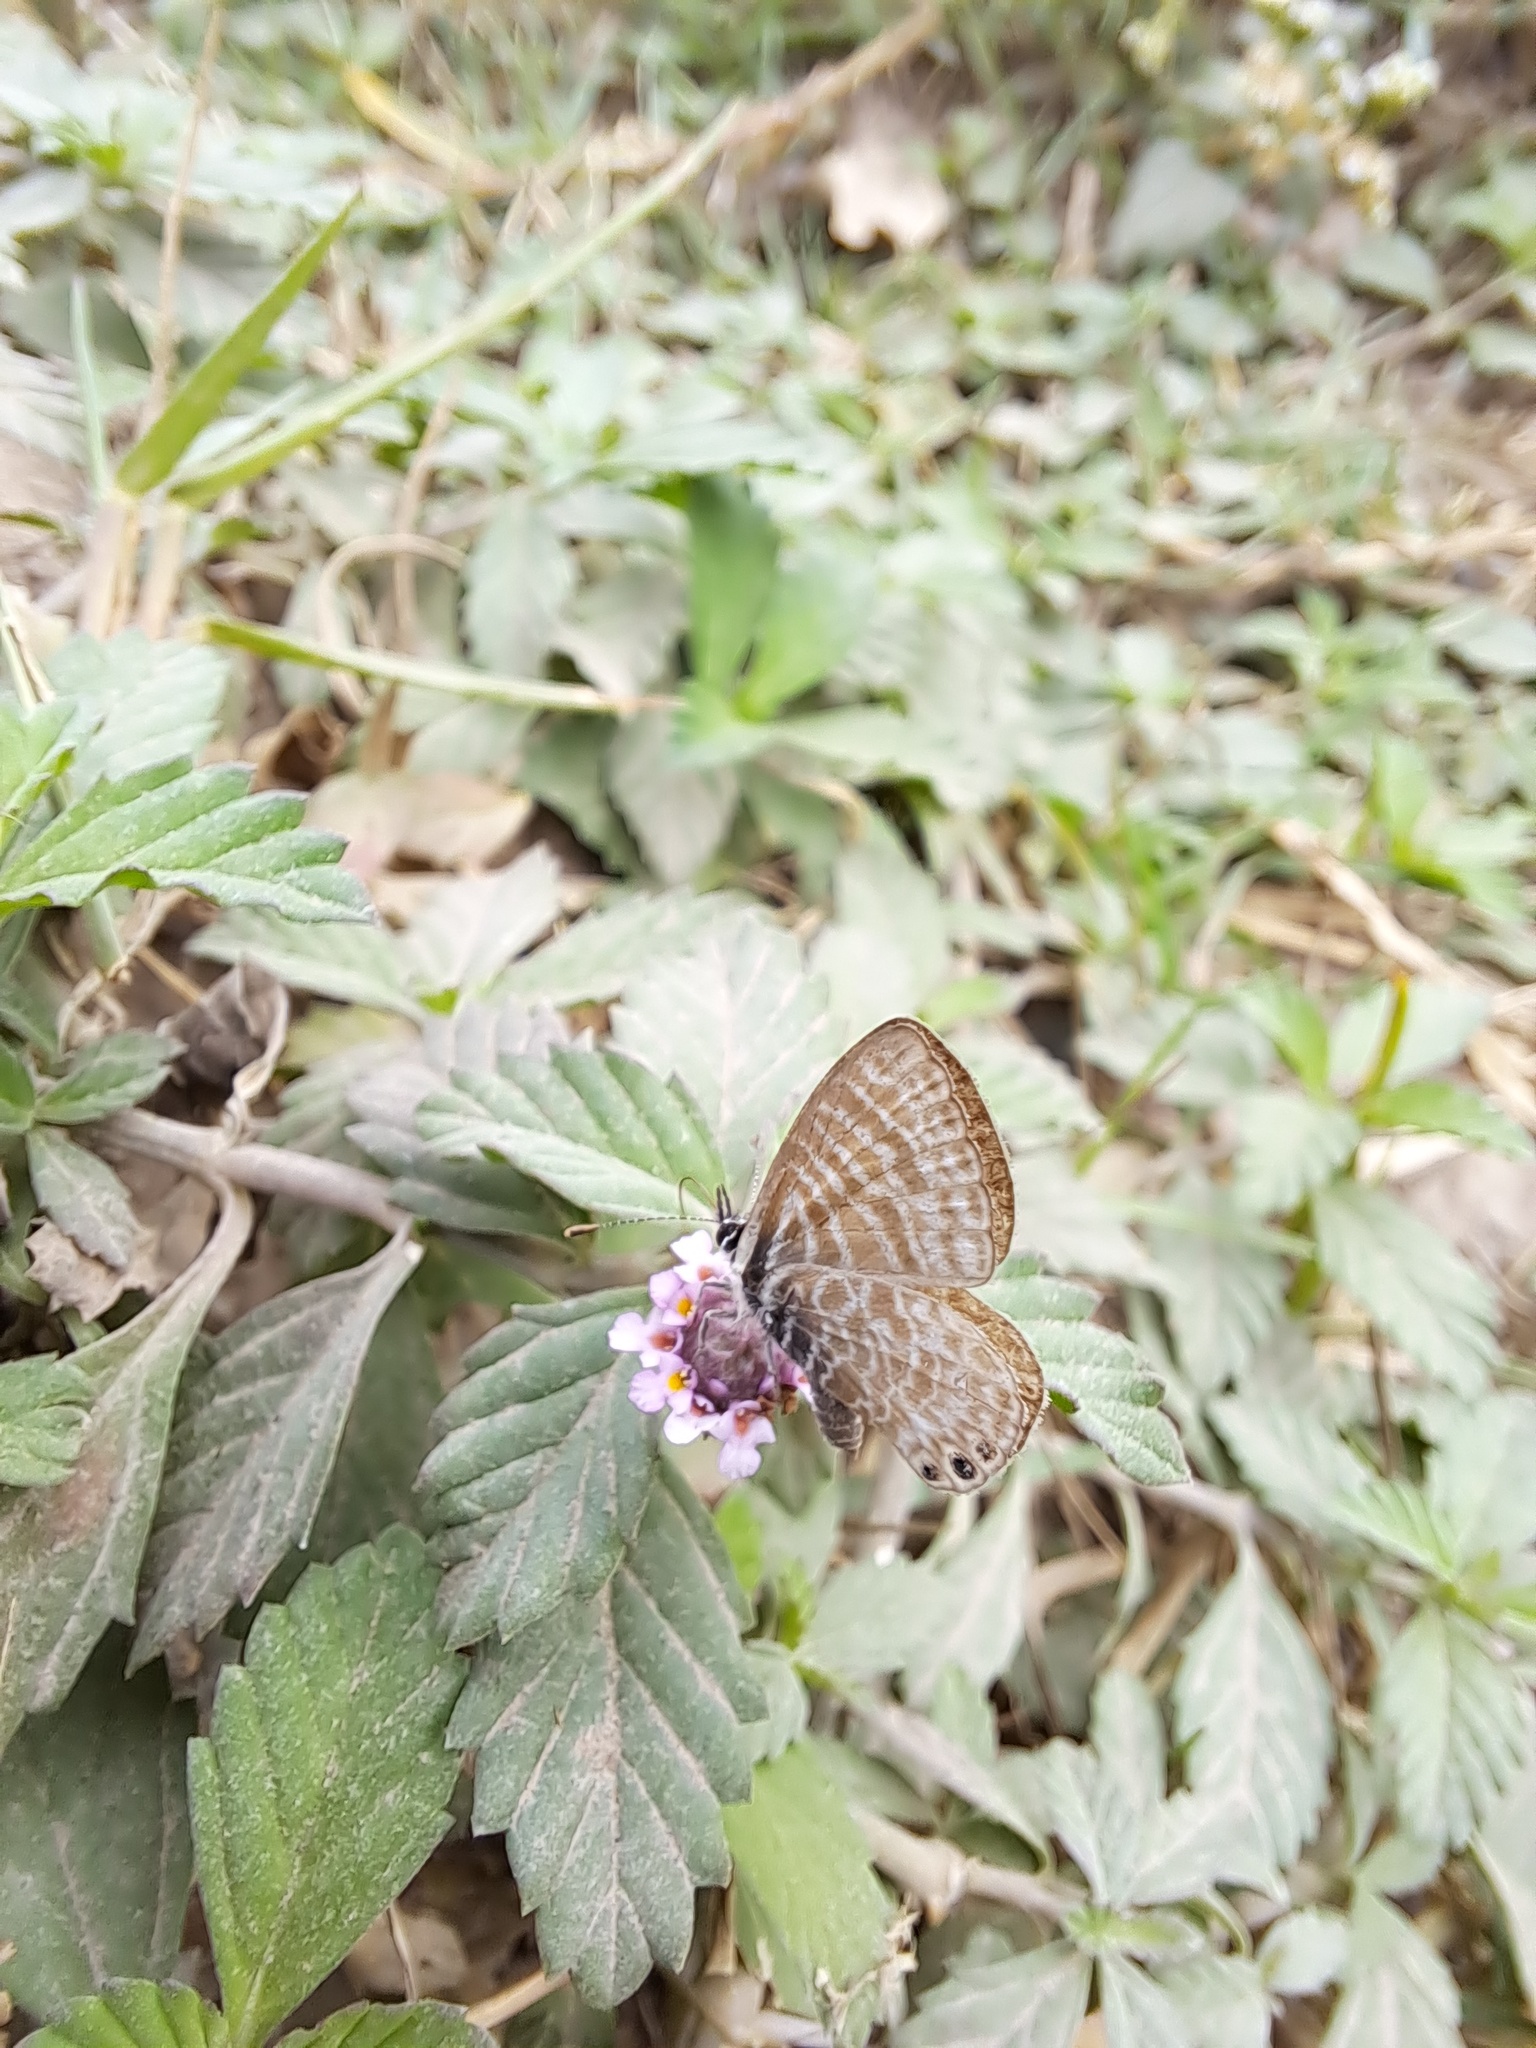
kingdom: Animalia
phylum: Arthropoda
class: Insecta
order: Lepidoptera
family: Lycaenidae
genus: Leptotes
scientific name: Leptotes trigemmatus
